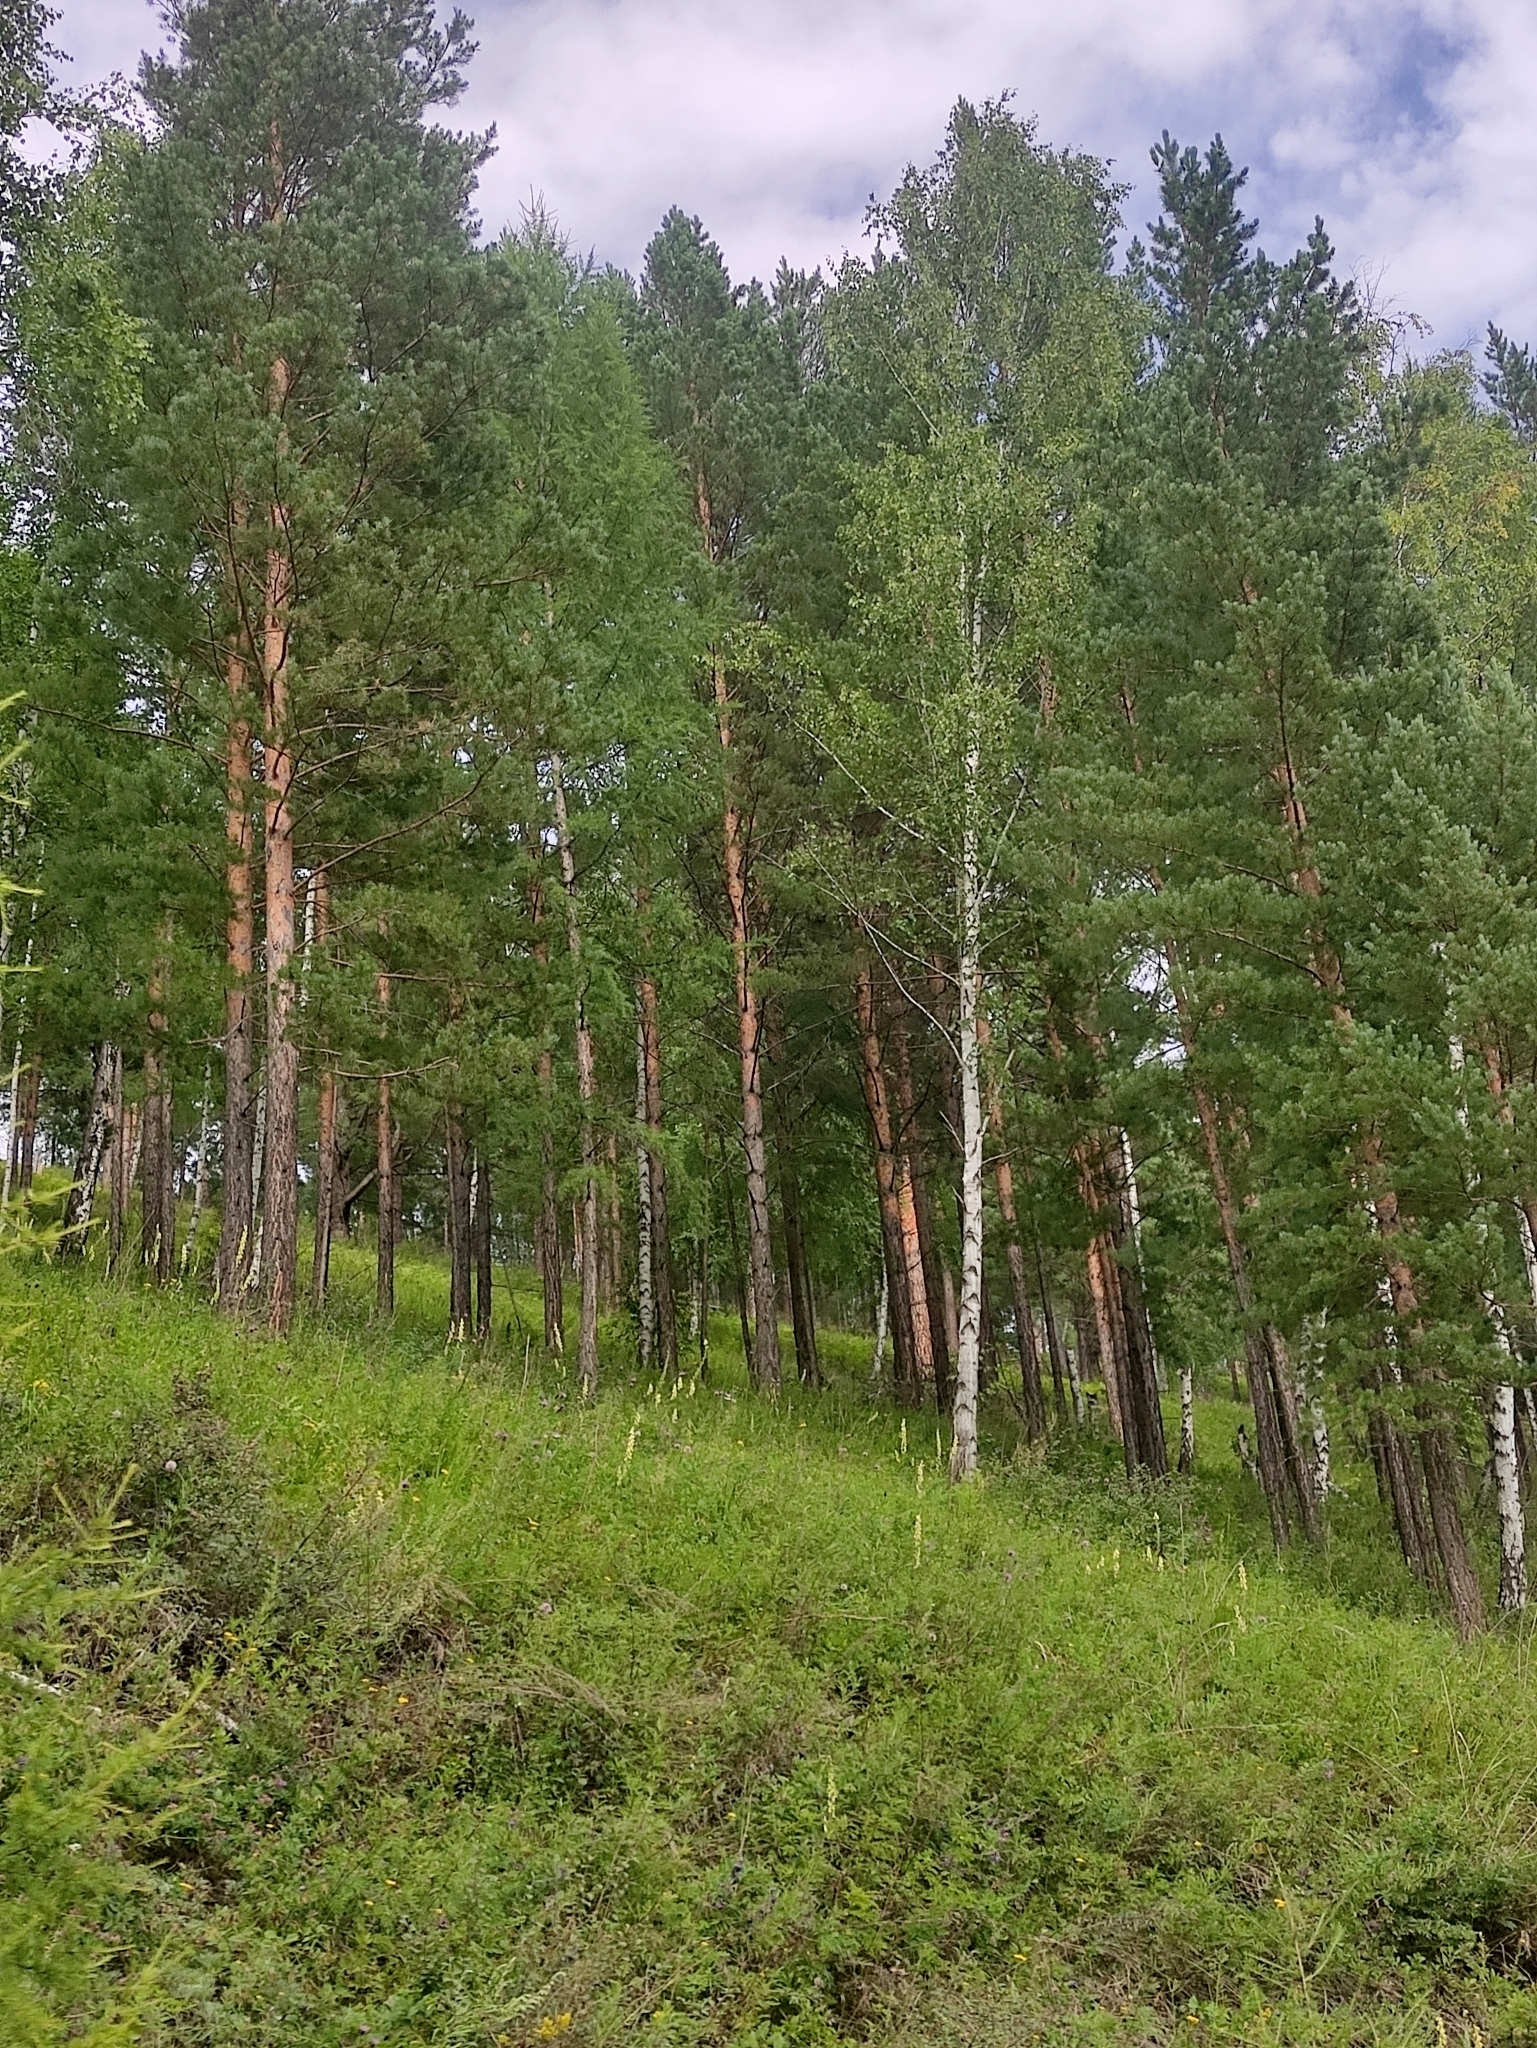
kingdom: Plantae
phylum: Tracheophyta
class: Pinopsida
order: Pinales
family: Pinaceae
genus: Pinus
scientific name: Pinus sylvestris
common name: Scots pine
